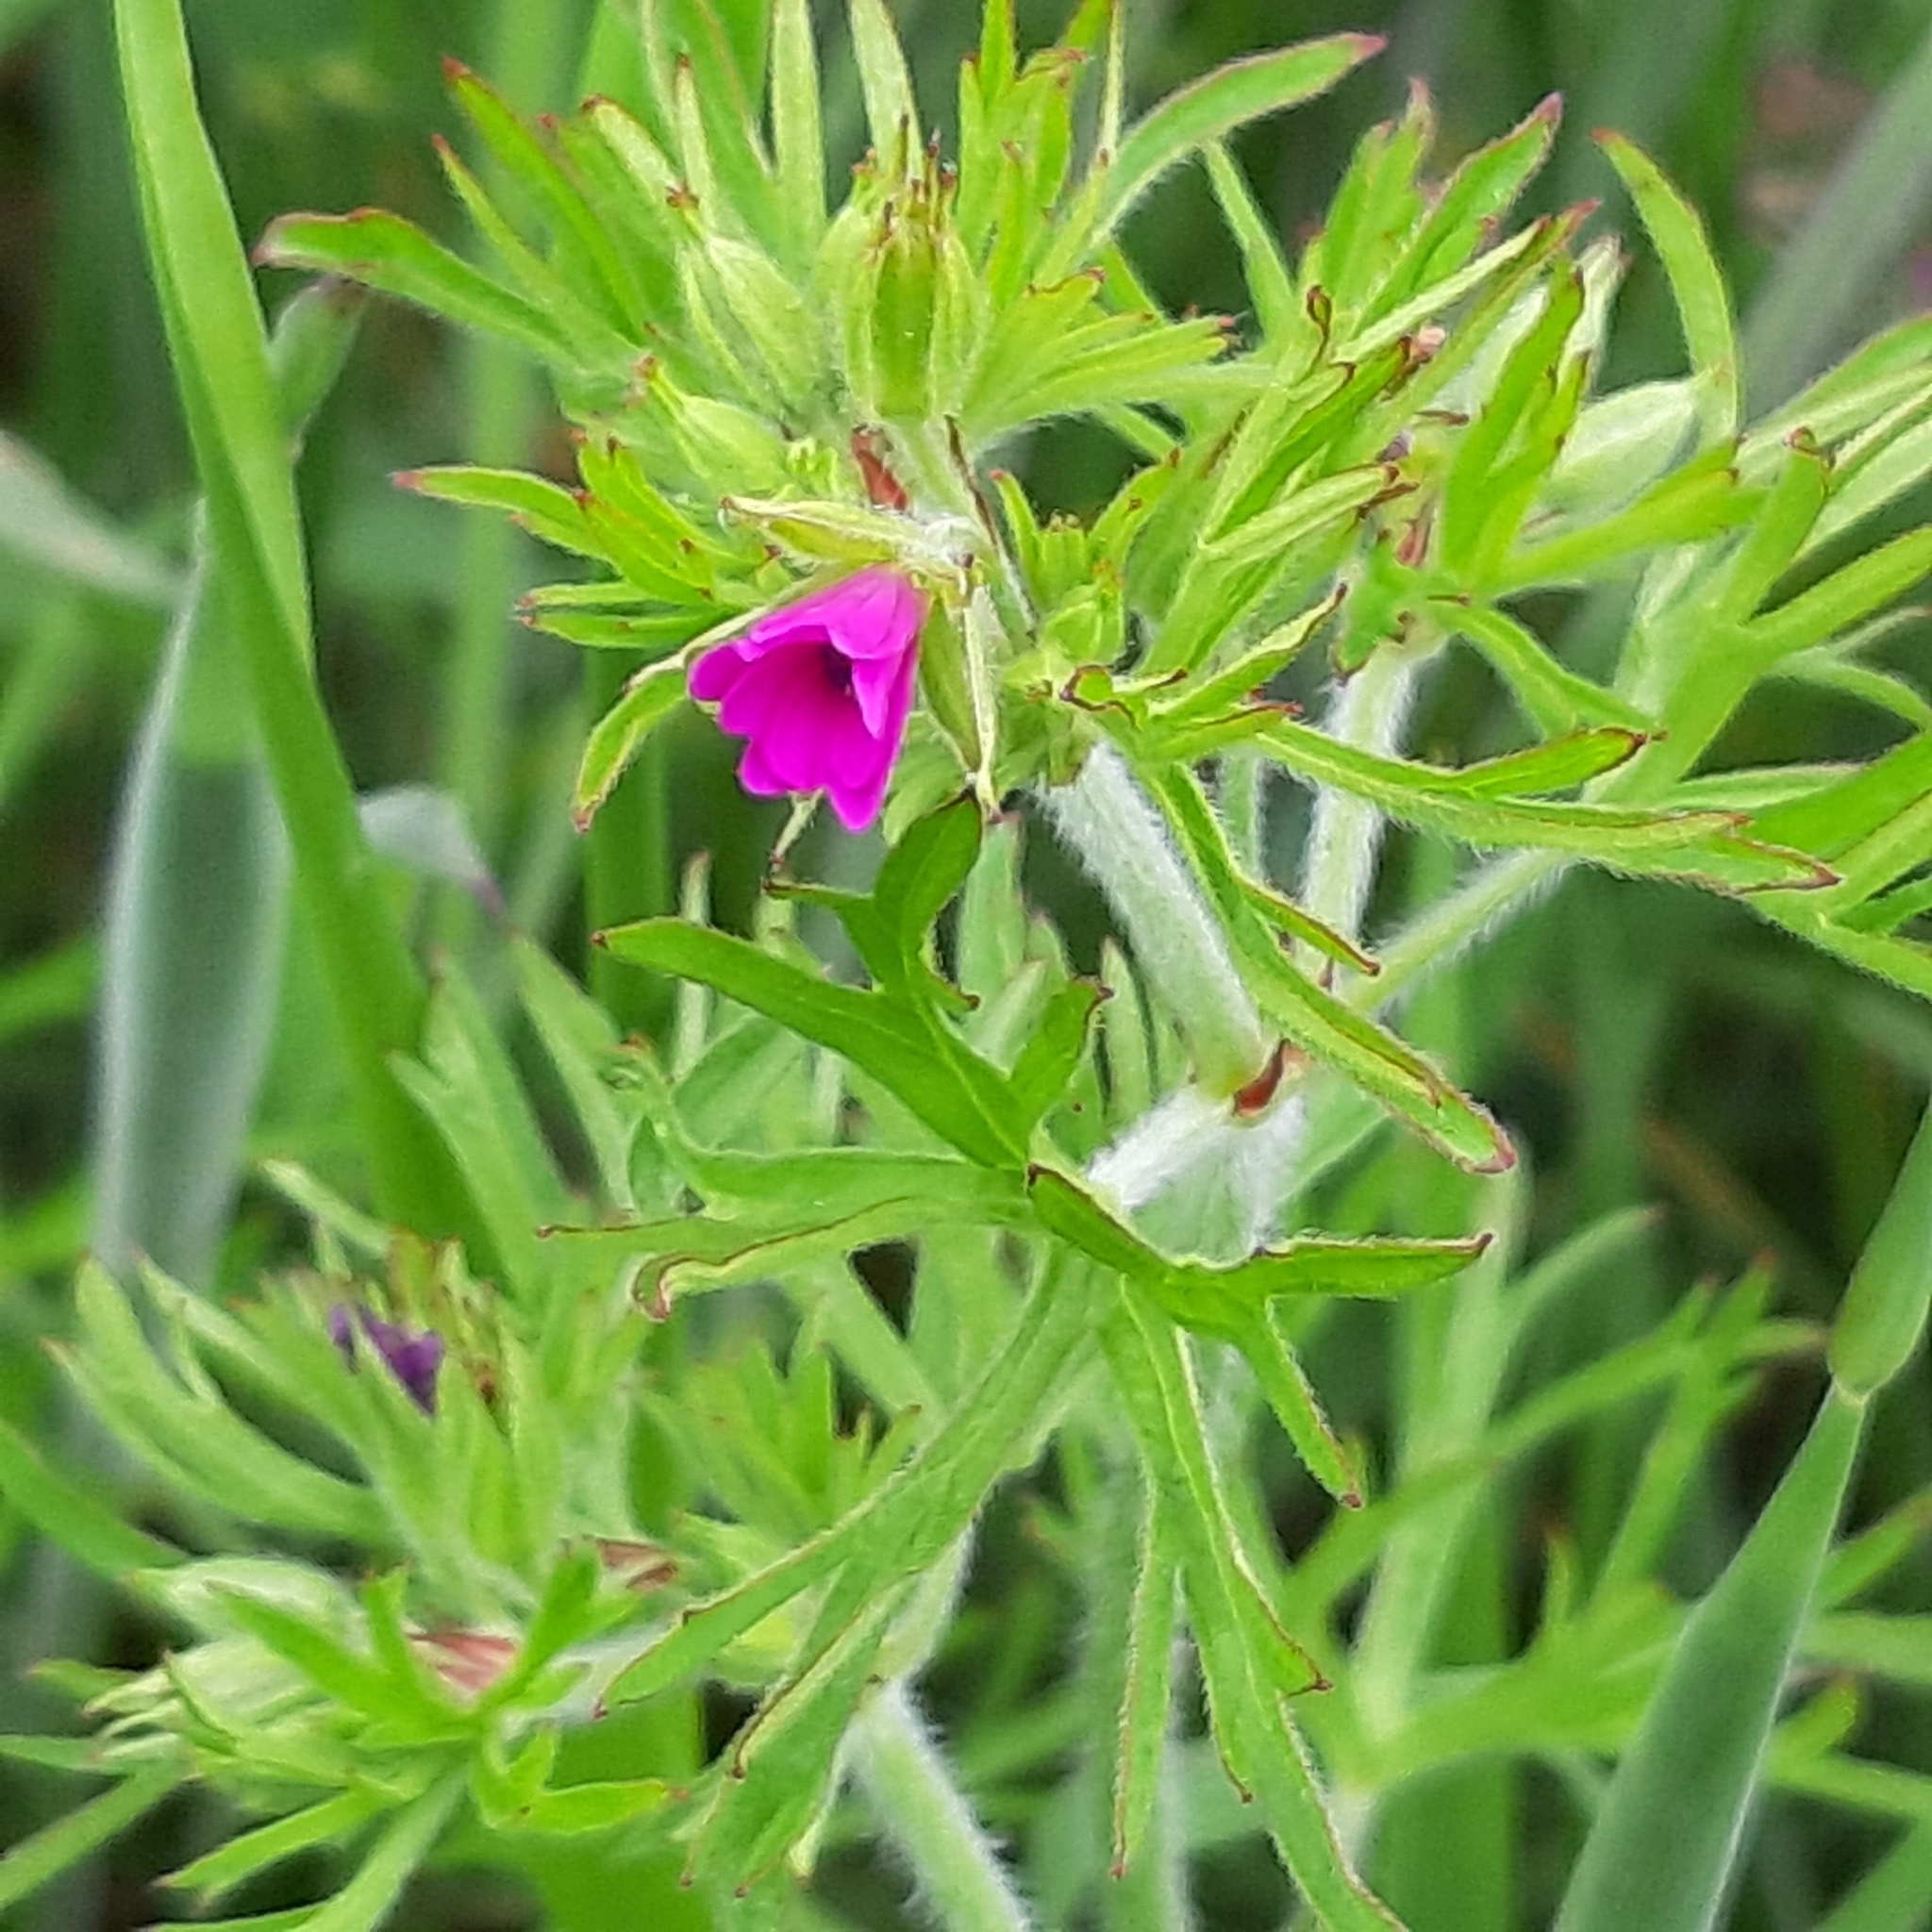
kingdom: Plantae
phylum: Tracheophyta
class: Magnoliopsida
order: Geraniales
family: Geraniaceae
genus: Geranium
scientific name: Geranium dissectum
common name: Cut-leaved crane's-bill
